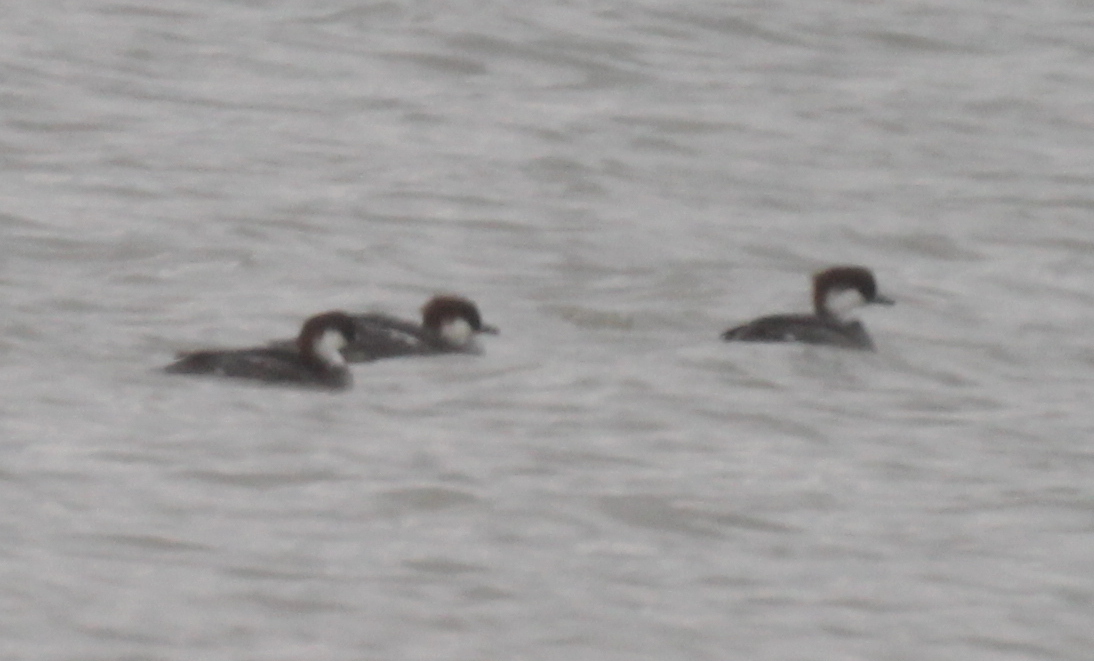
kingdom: Animalia
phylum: Chordata
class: Aves
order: Anseriformes
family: Anatidae
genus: Mergellus
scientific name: Mergellus albellus
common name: Smew
